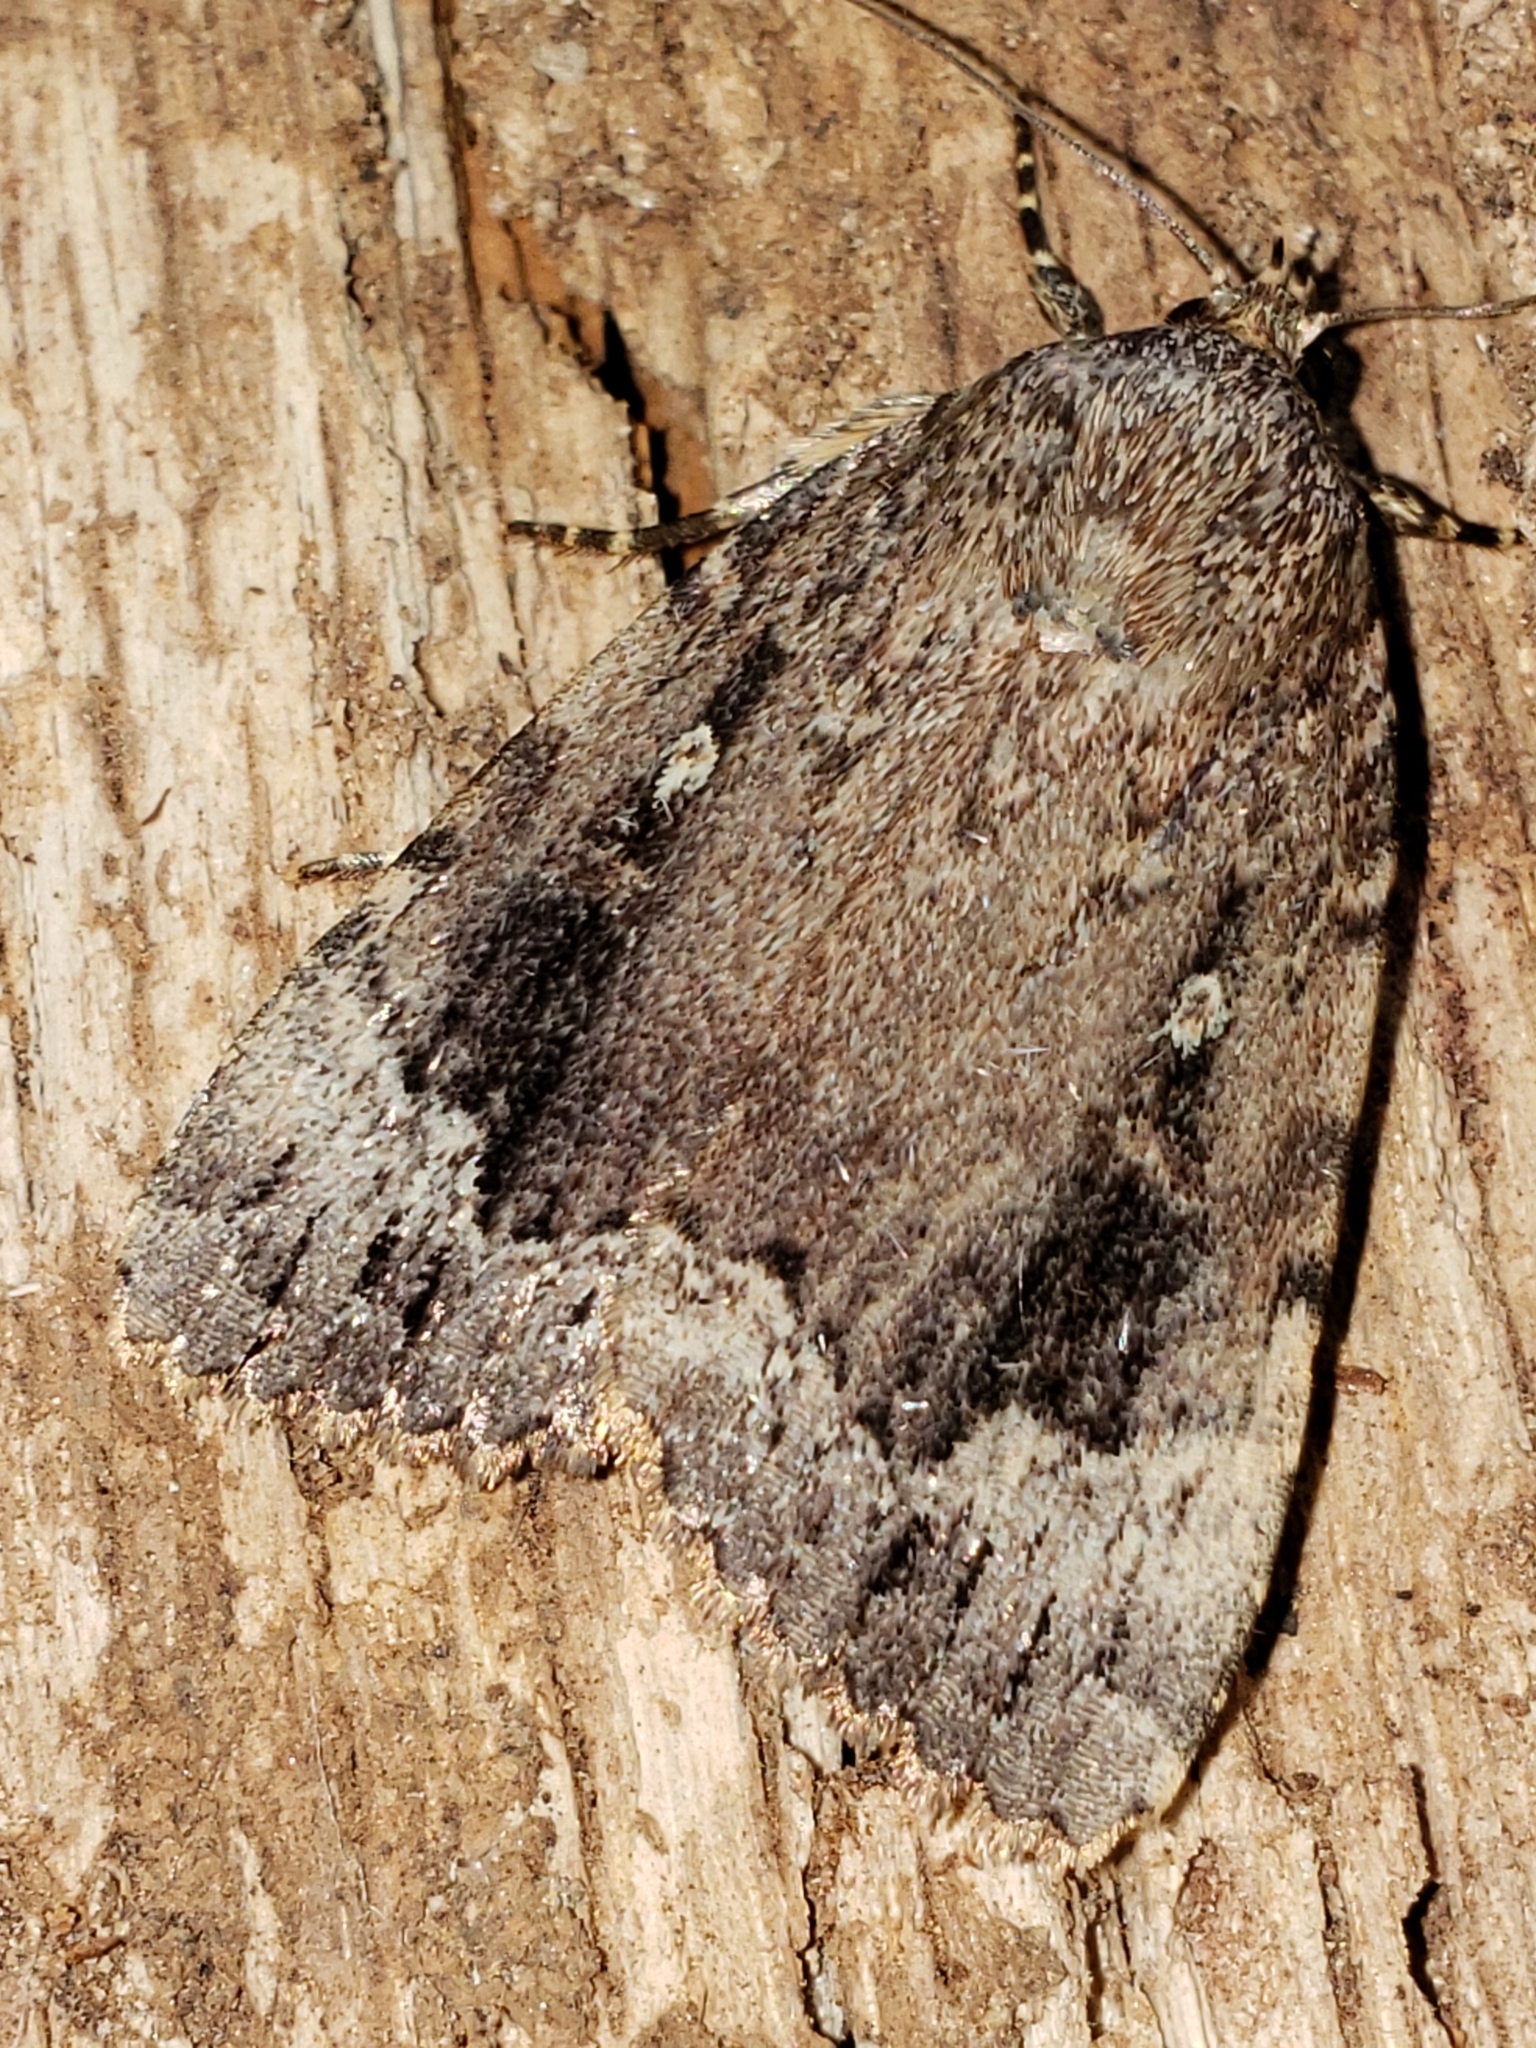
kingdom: Animalia
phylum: Arthropoda
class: Insecta
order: Lepidoptera
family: Noctuidae
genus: Amphipyra
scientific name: Amphipyra pyramidoides
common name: American copper underwing
